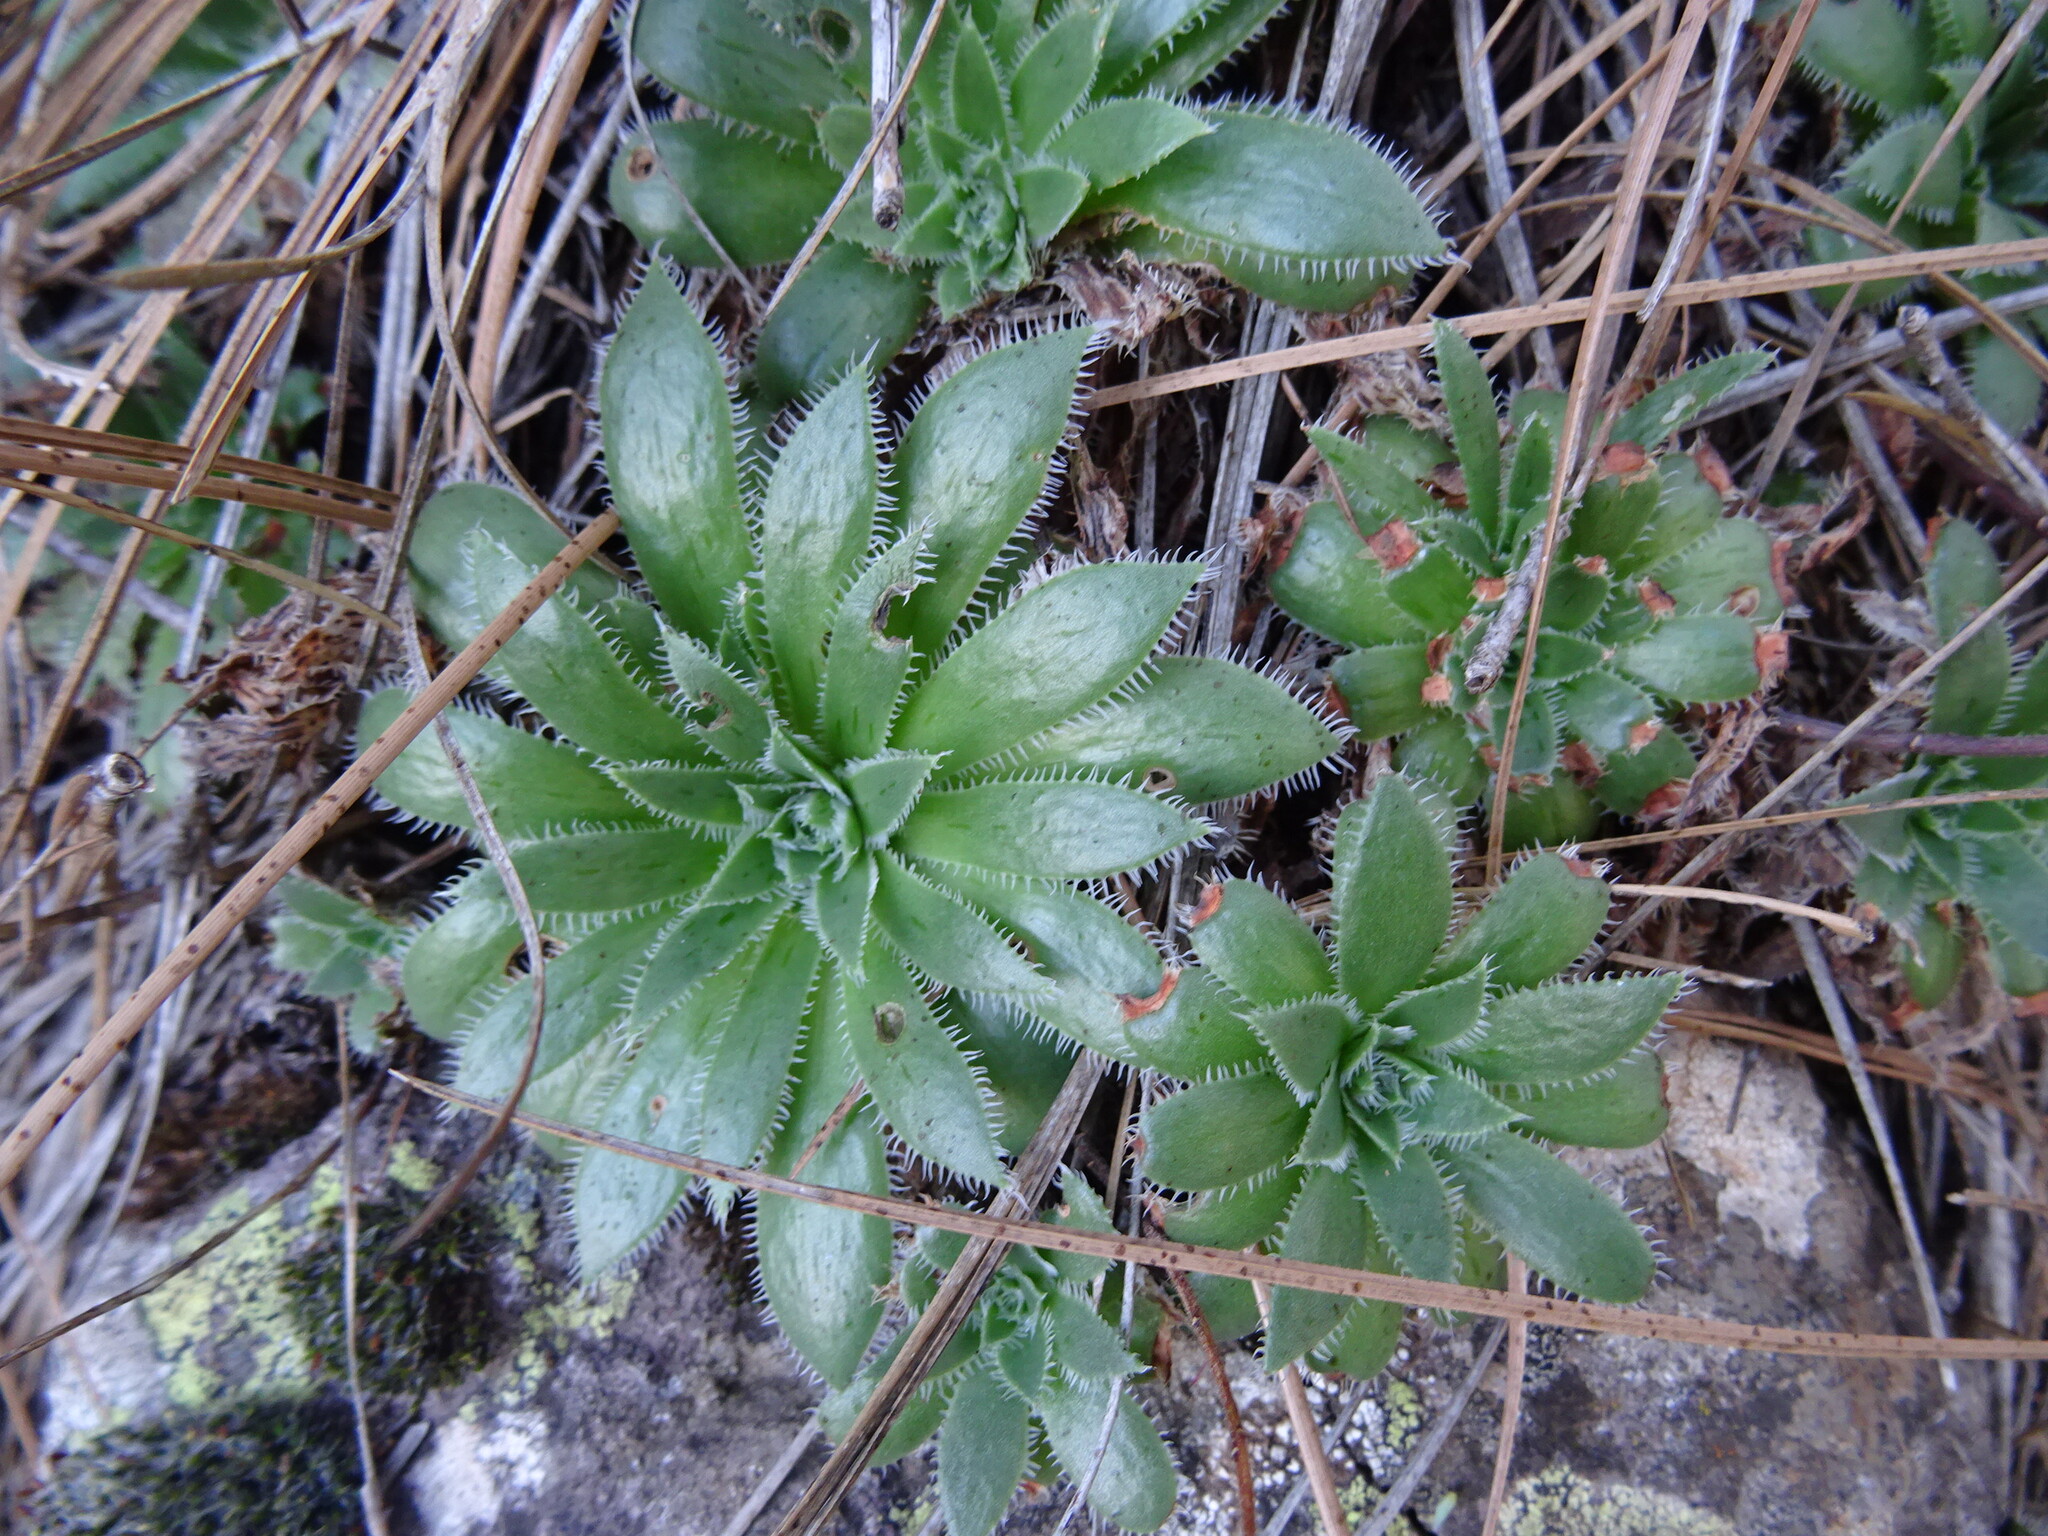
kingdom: Plantae
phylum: Tracheophyta
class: Magnoliopsida
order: Saxifragales
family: Crassulaceae
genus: Aeonium
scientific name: Aeonium simsii
